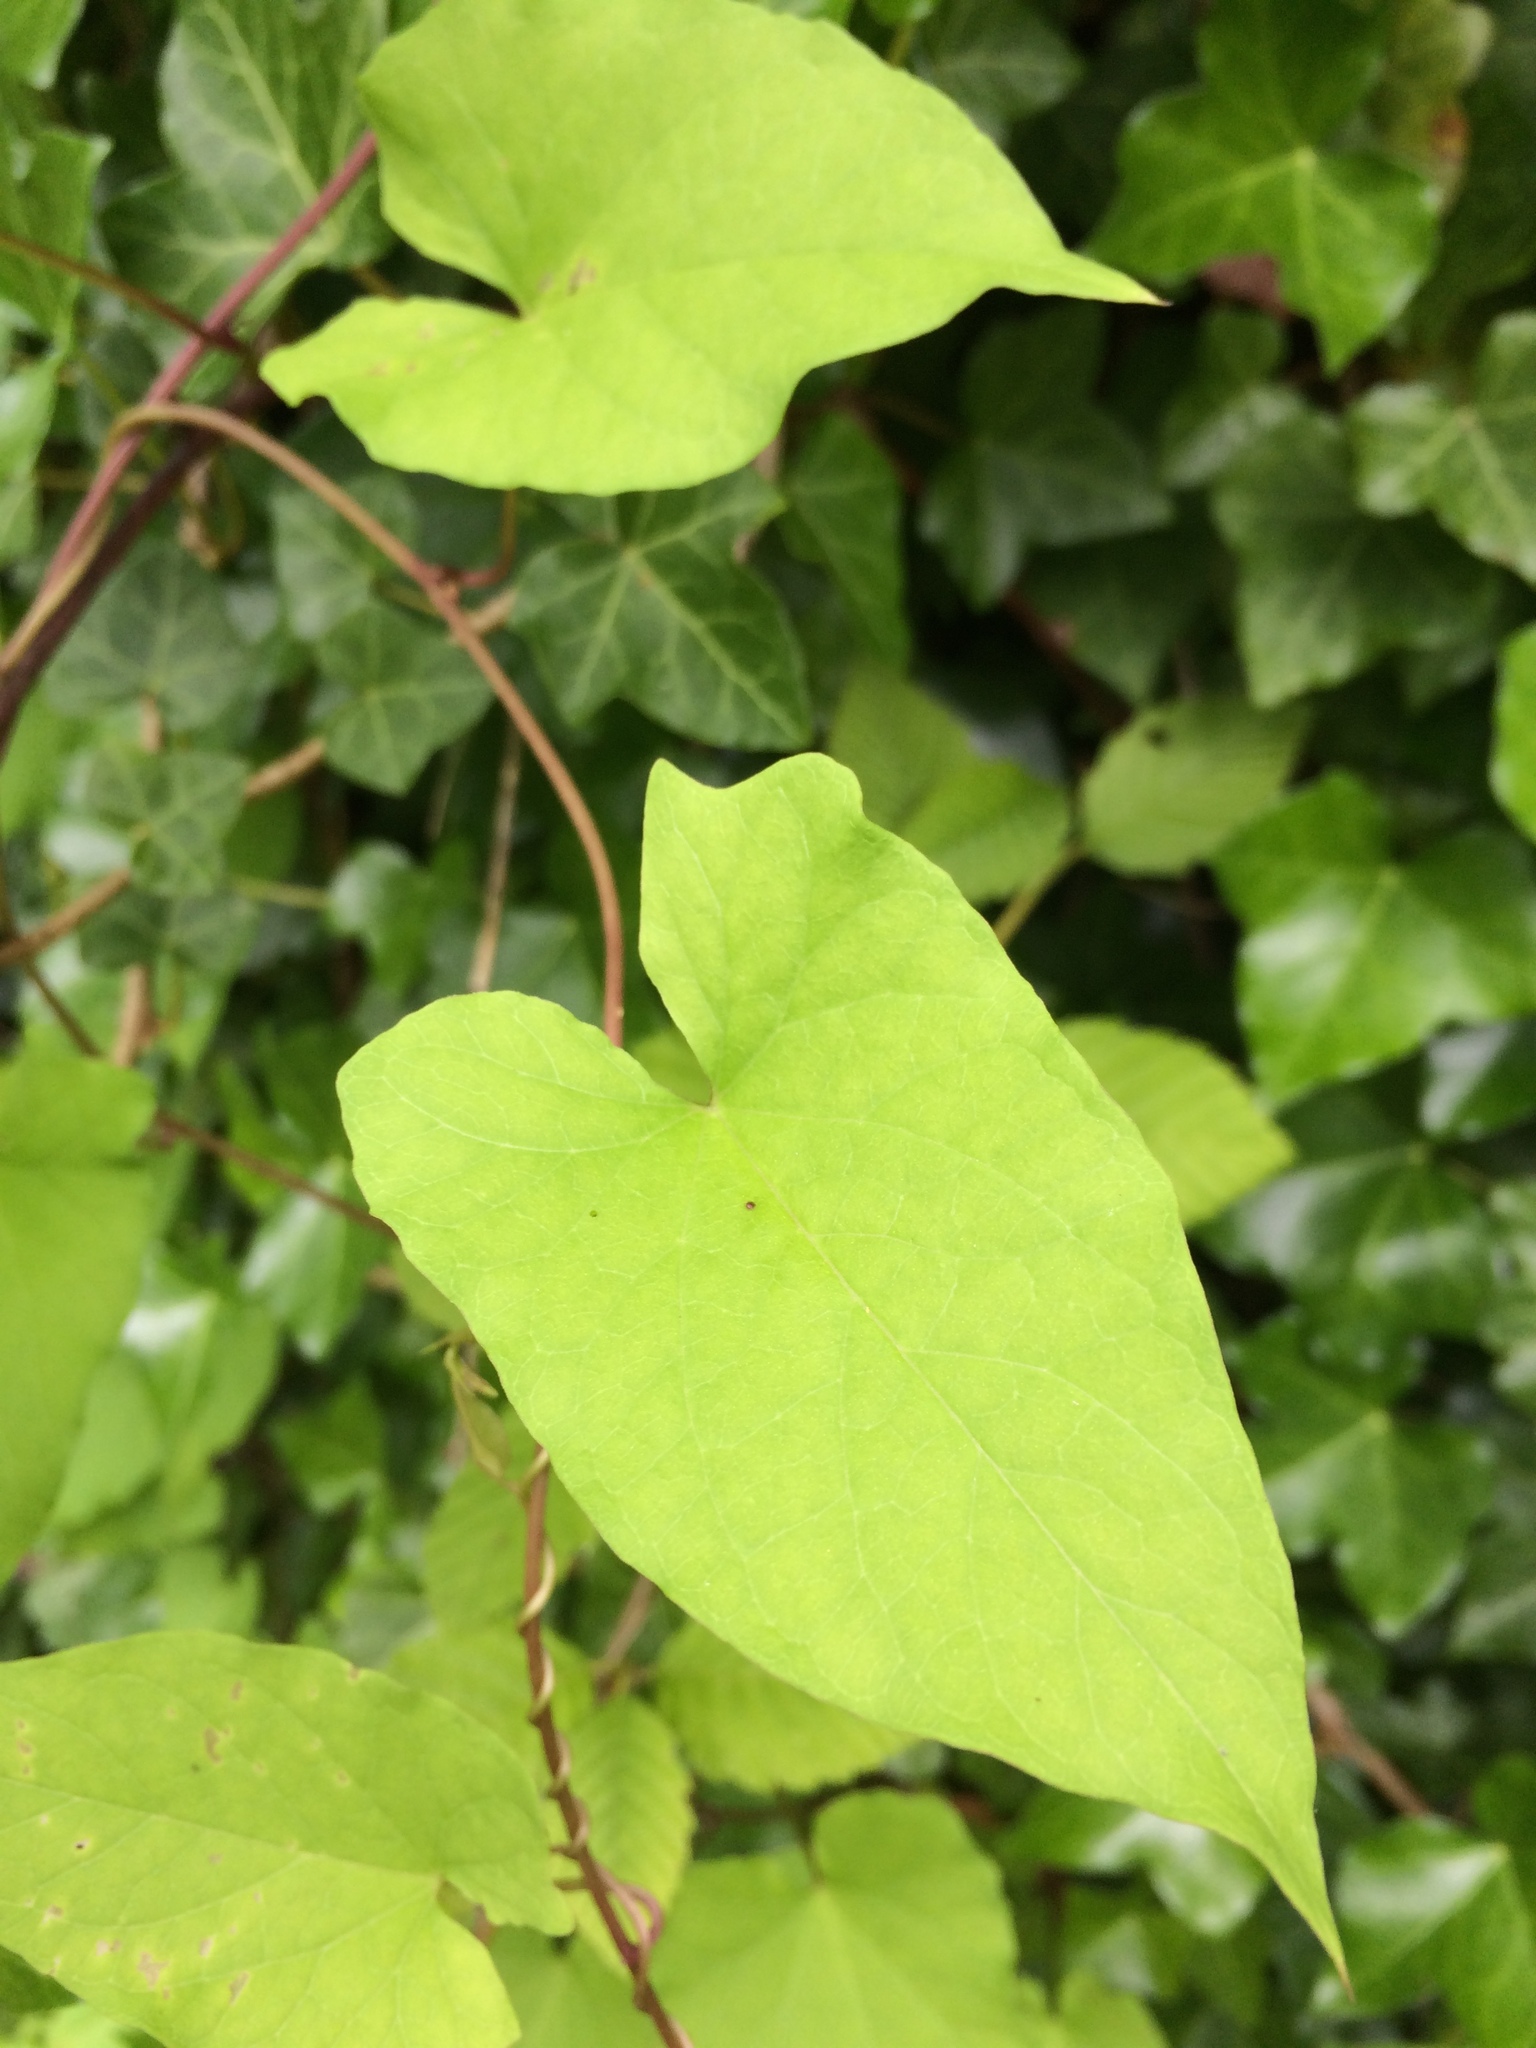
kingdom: Plantae
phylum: Tracheophyta
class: Magnoliopsida
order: Solanales
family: Convolvulaceae
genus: Calystegia
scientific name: Calystegia silvatica
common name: Large bindweed
